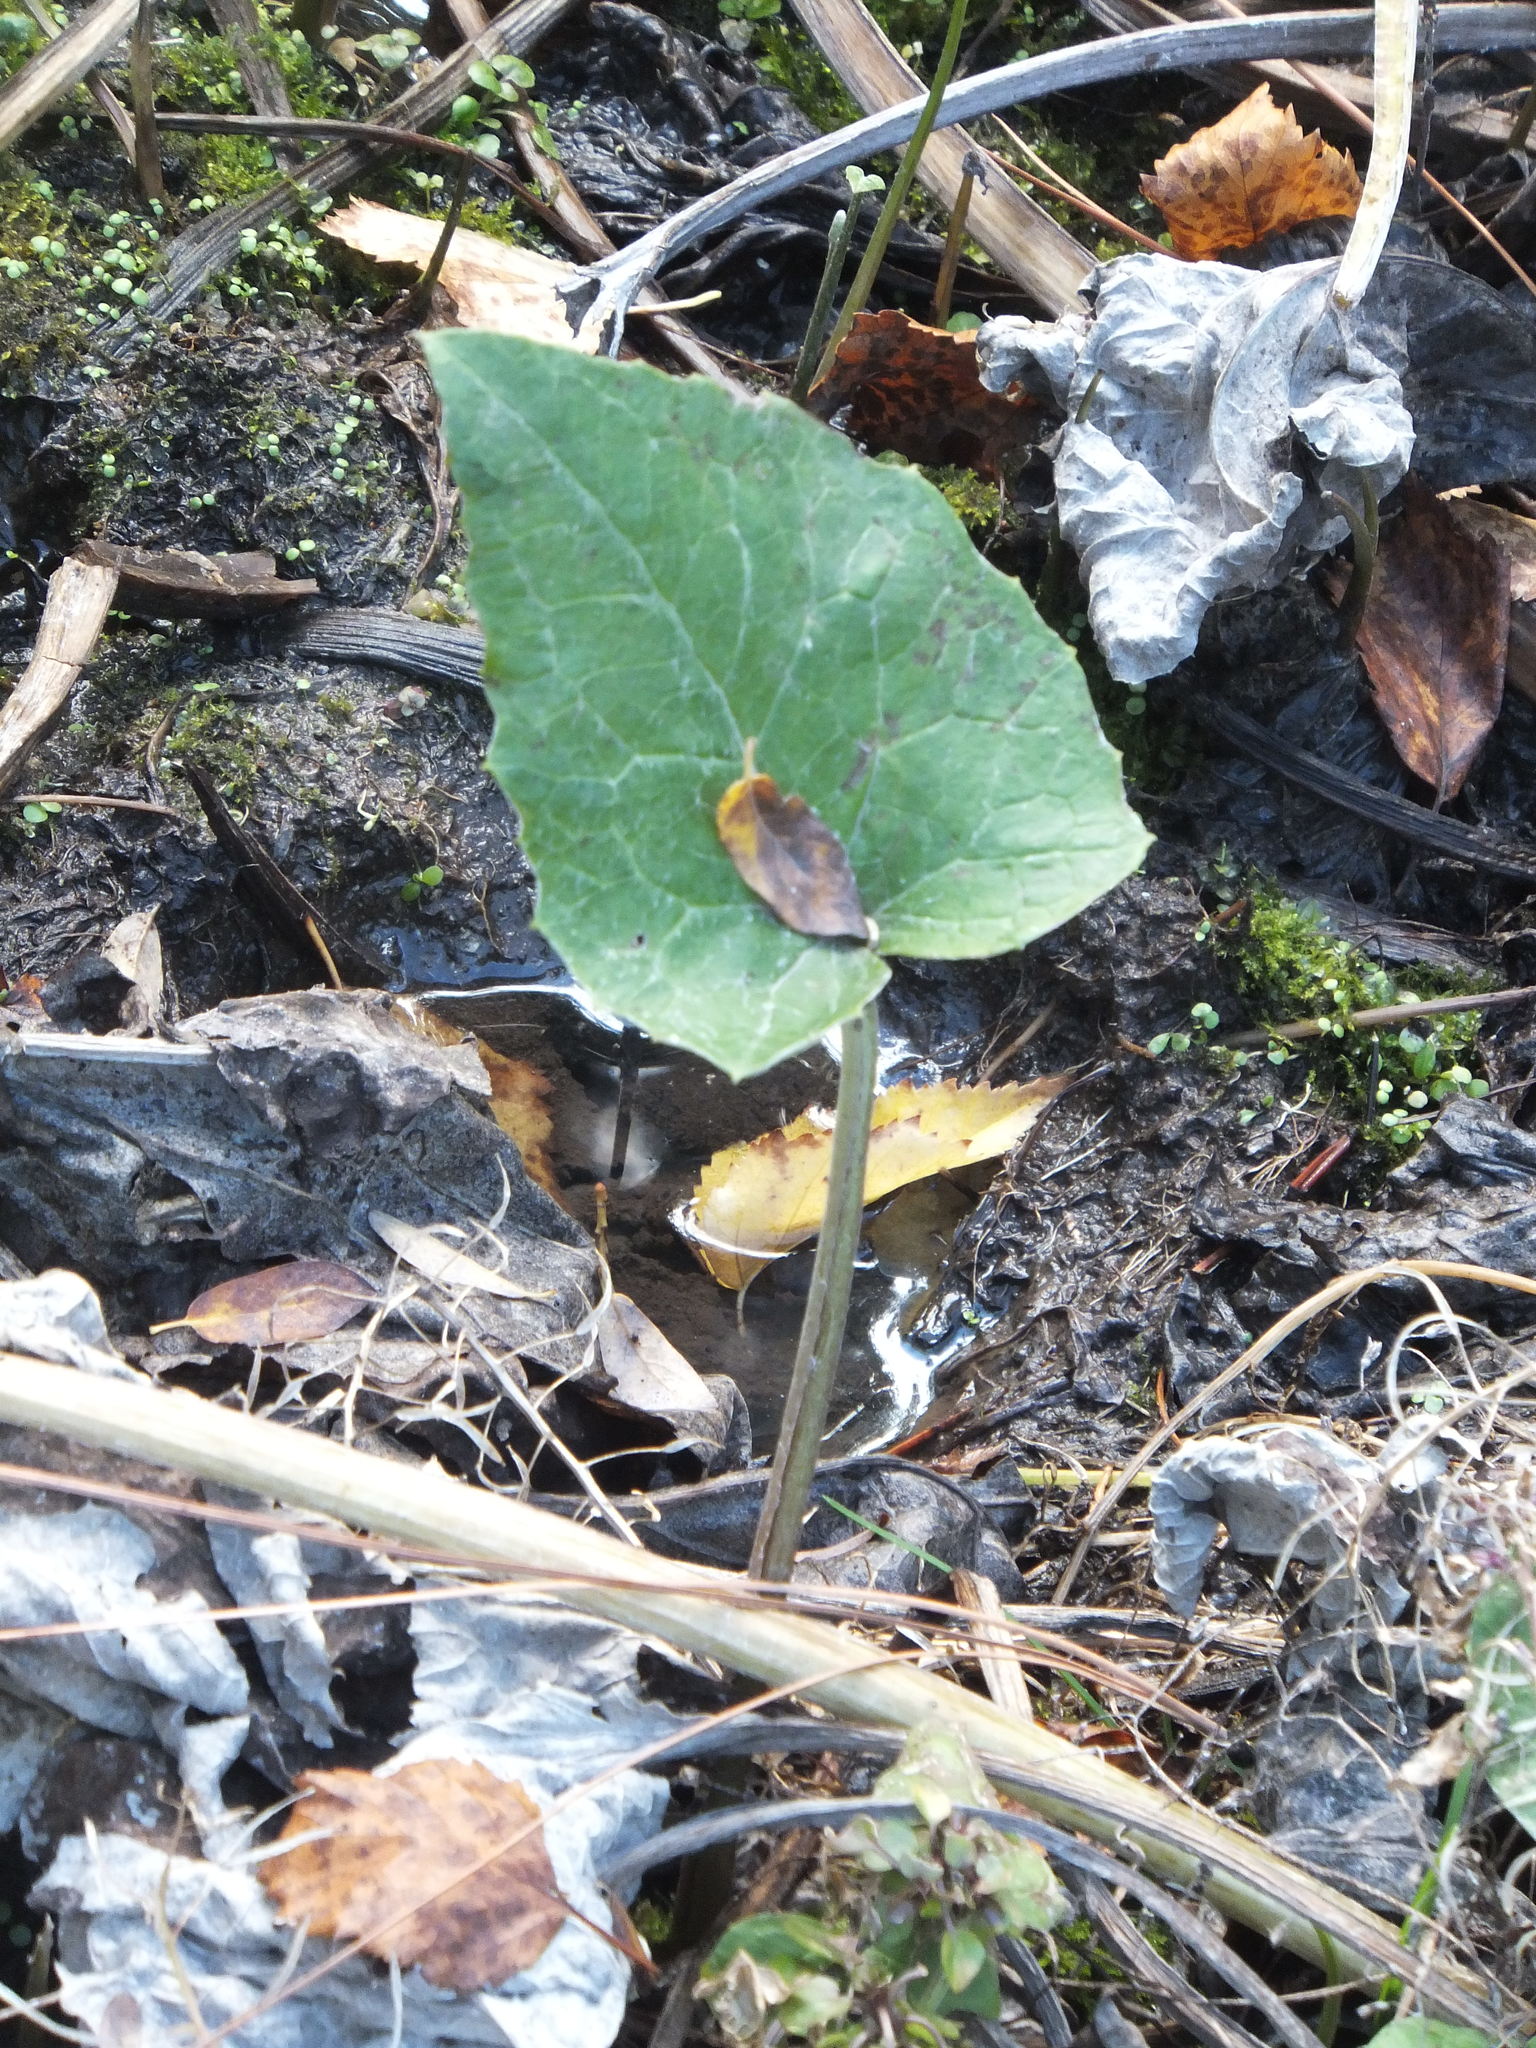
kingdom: Plantae
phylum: Tracheophyta
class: Magnoliopsida
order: Asterales
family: Asteraceae
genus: Petasites
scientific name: Petasites frigidus
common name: Arctic butterbur
